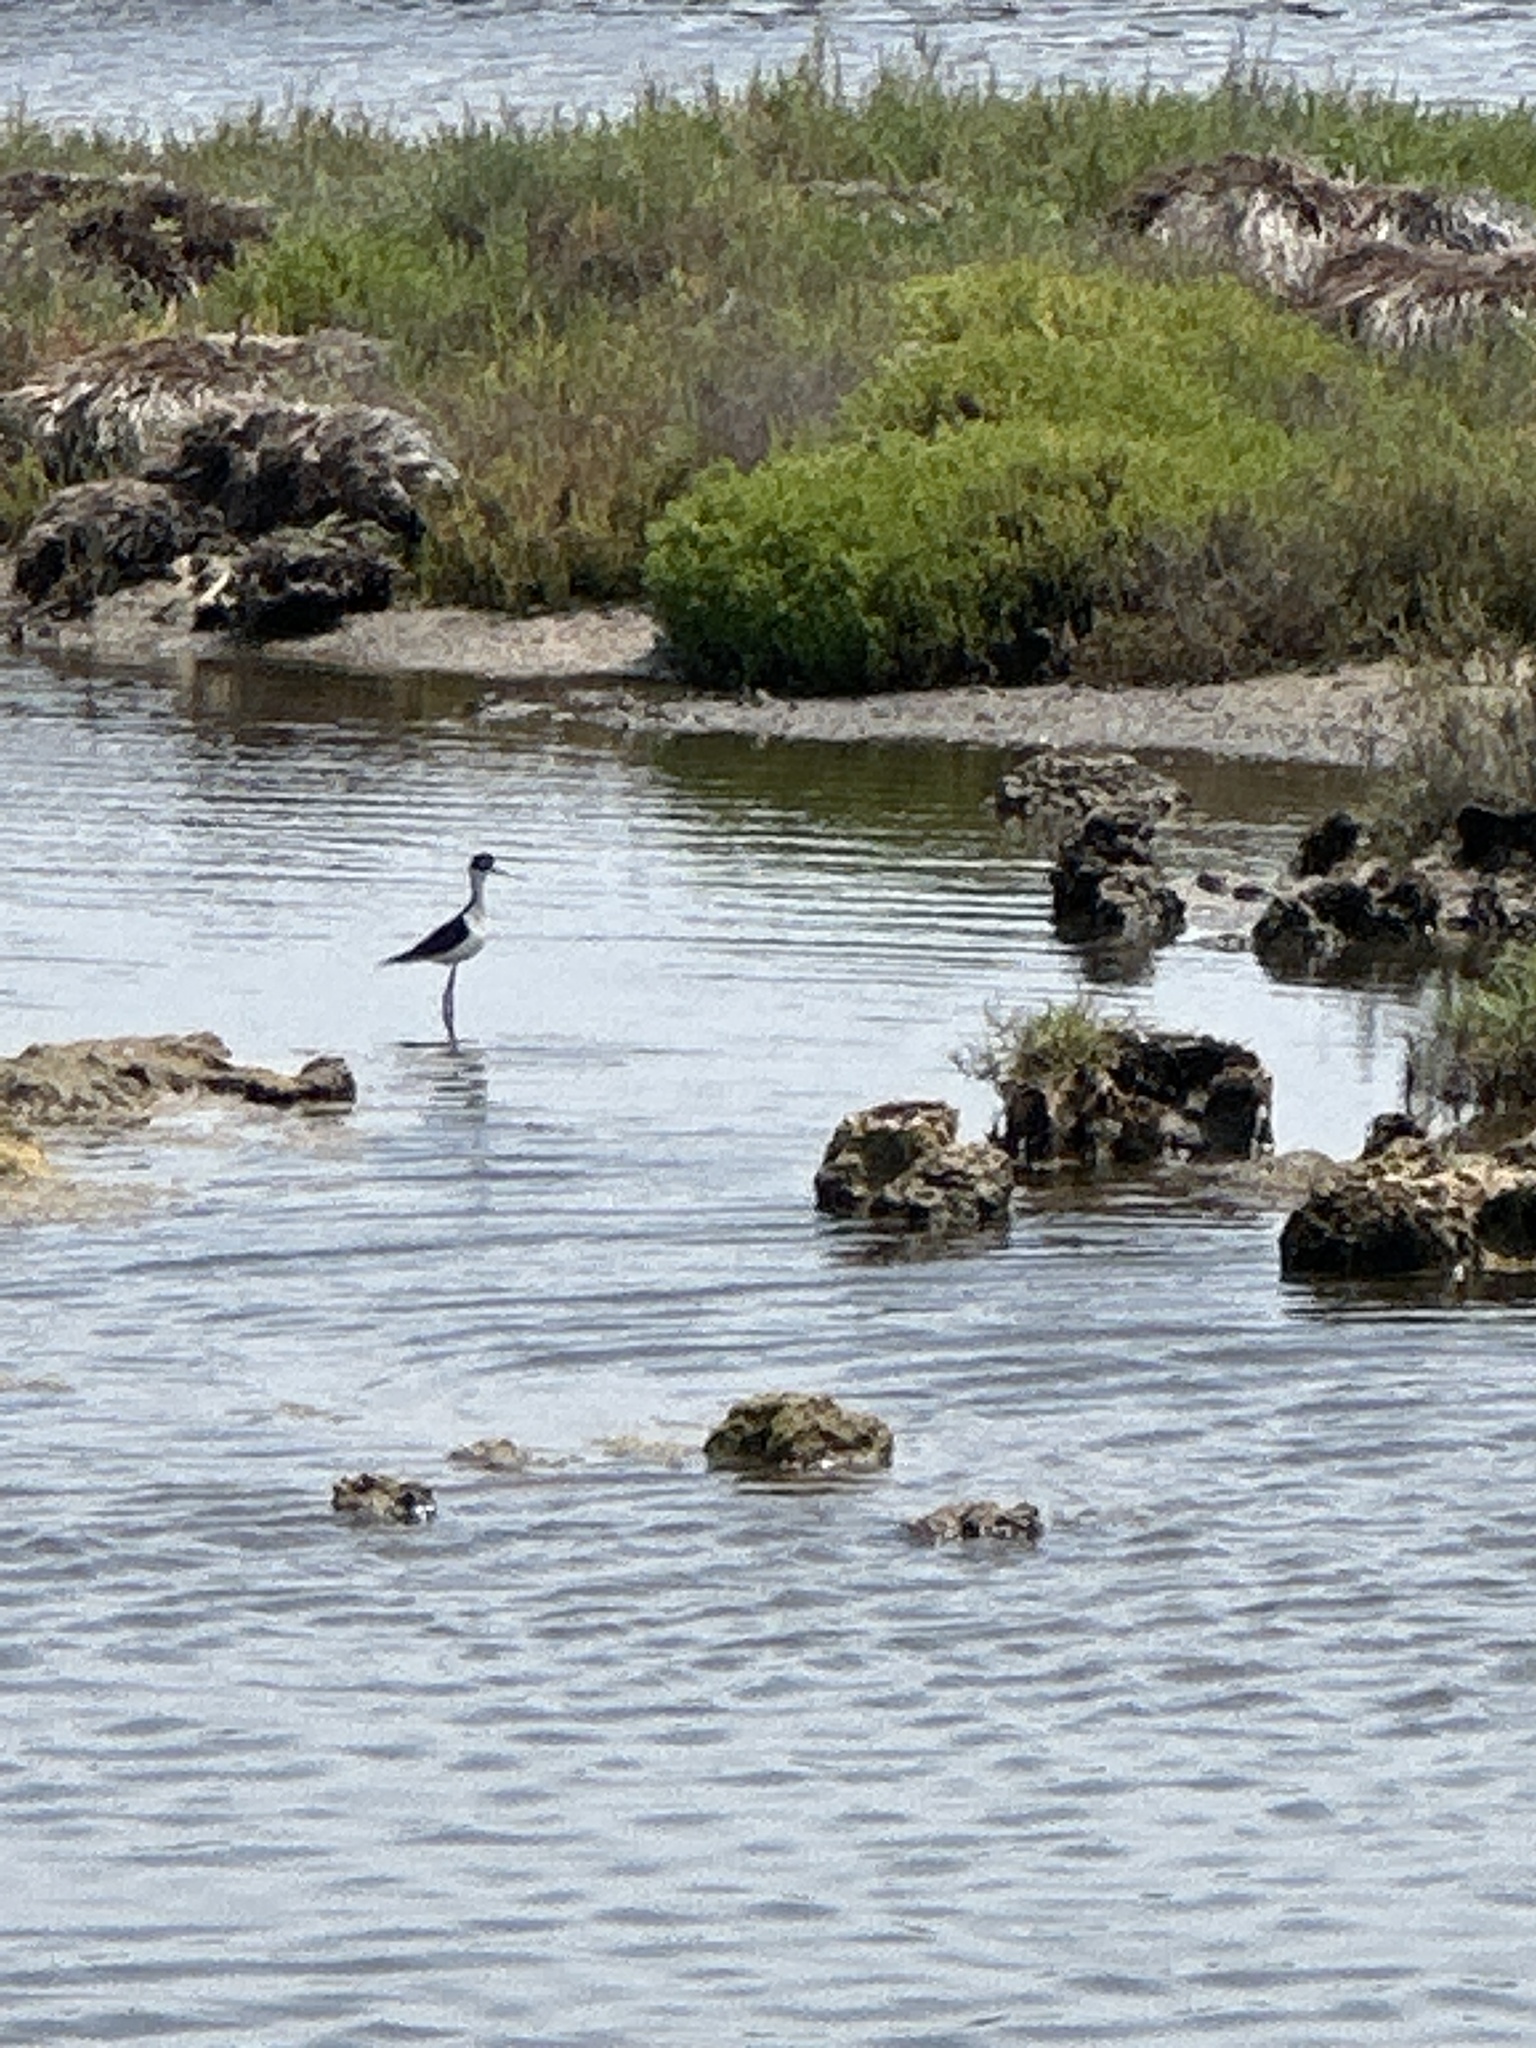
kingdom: Animalia
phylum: Chordata
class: Aves
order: Charadriiformes
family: Recurvirostridae
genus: Himantopus
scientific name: Himantopus mexicanus
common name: Black-necked stilt
